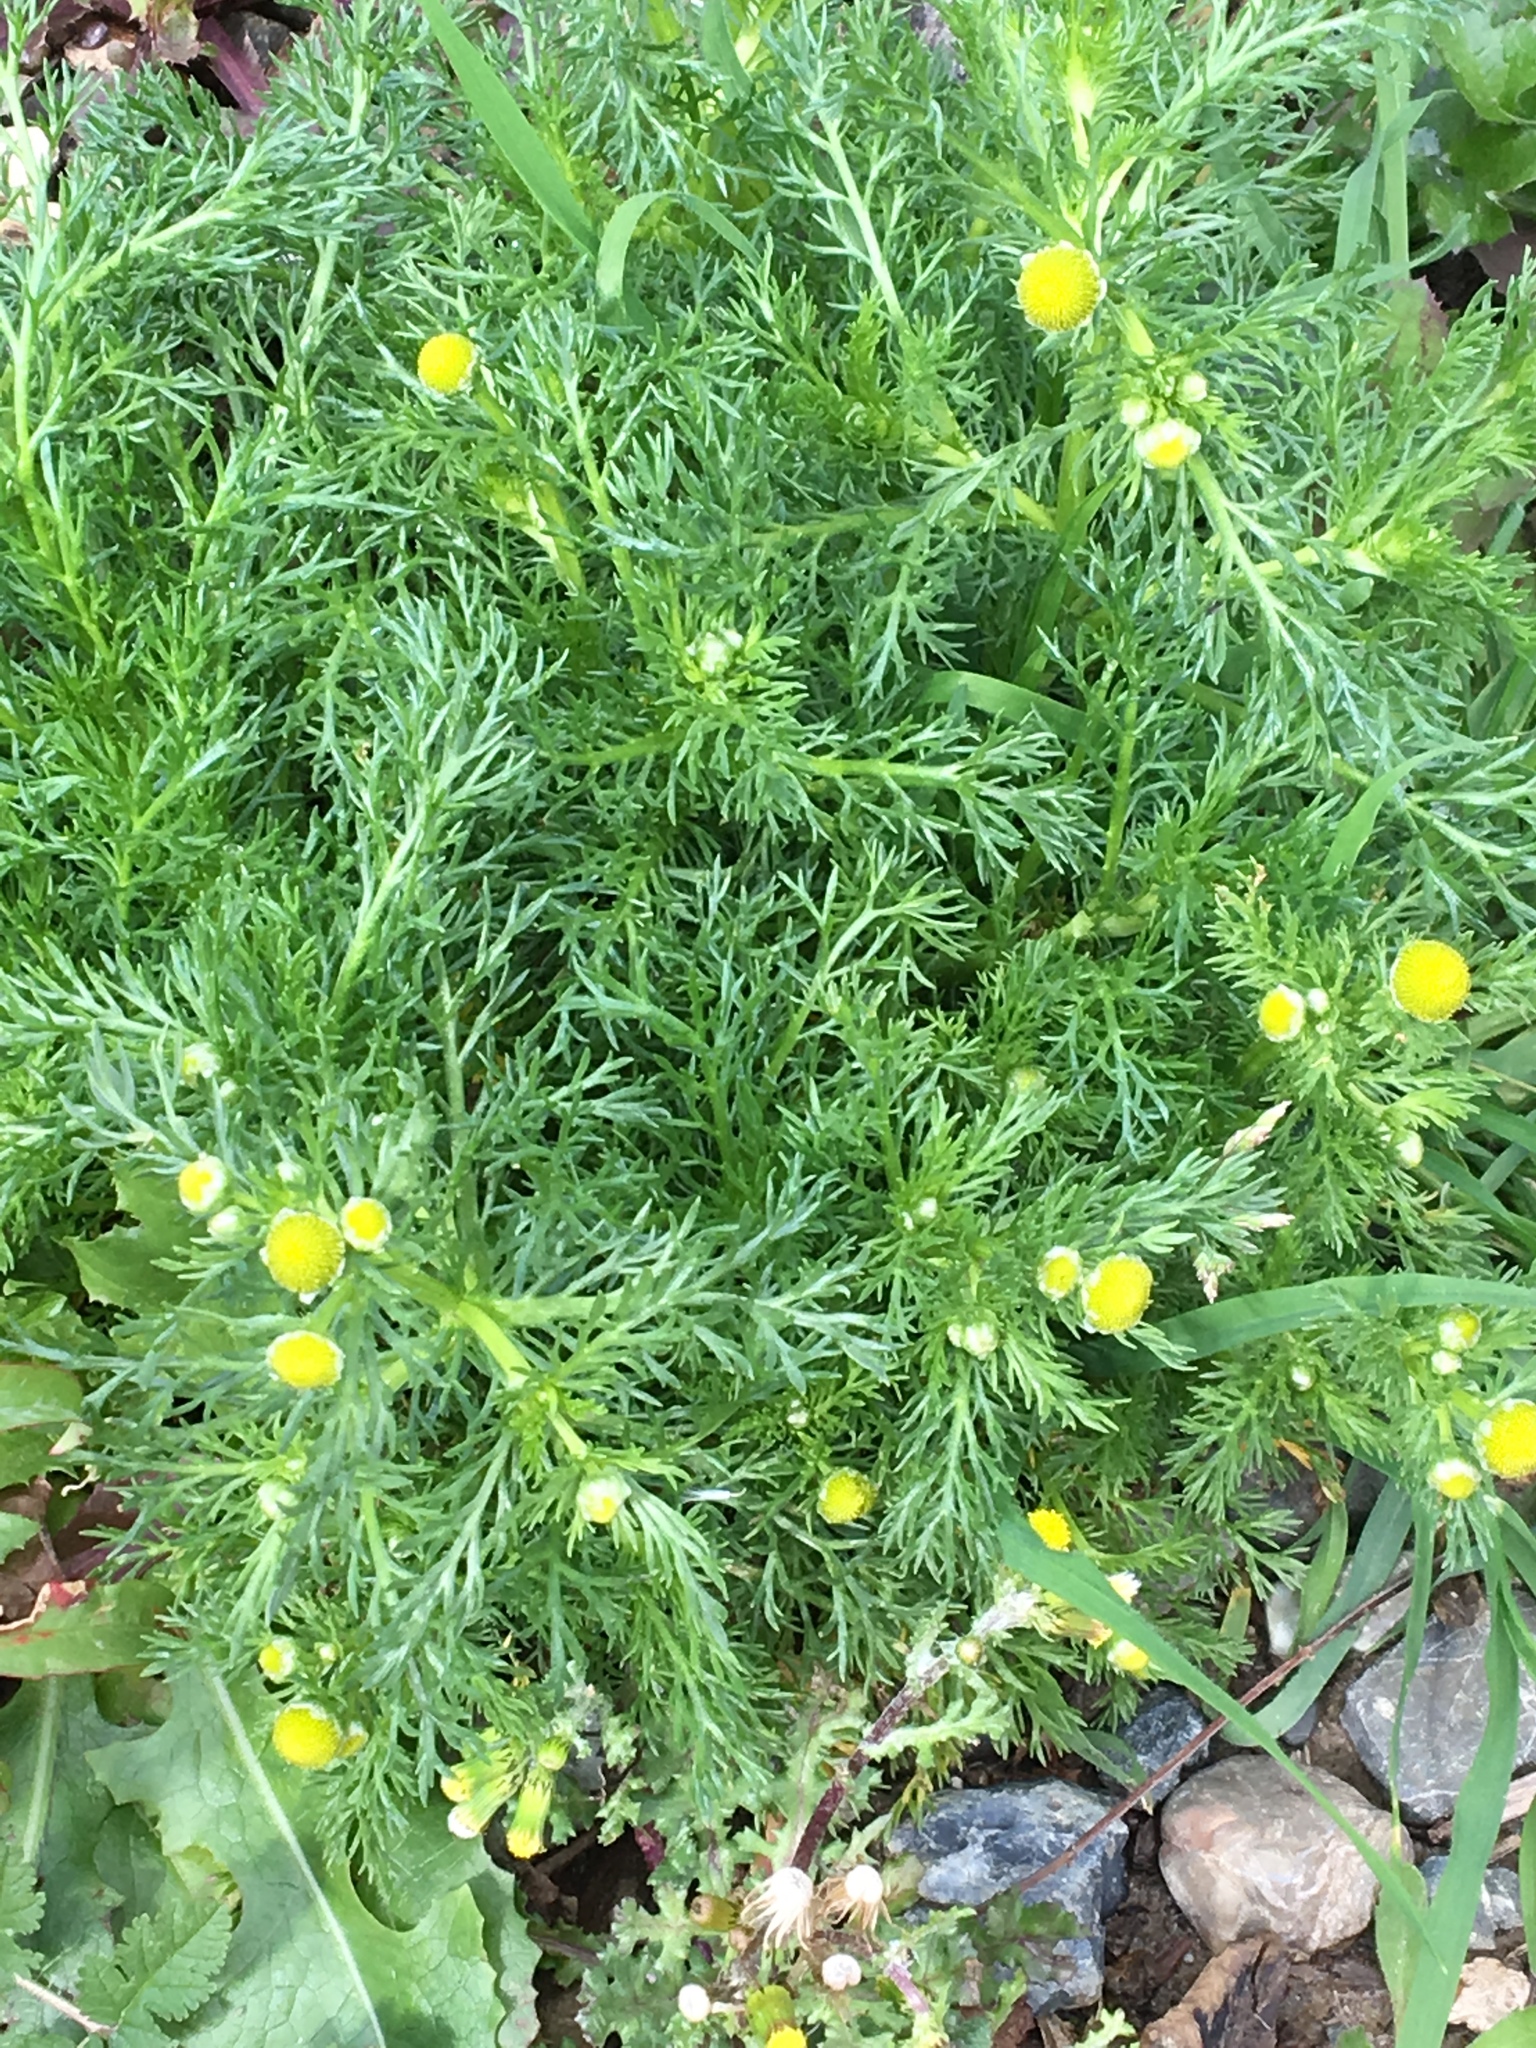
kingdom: Plantae
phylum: Tracheophyta
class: Magnoliopsida
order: Asterales
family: Asteraceae
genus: Matricaria
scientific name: Matricaria discoidea
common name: Disc mayweed
